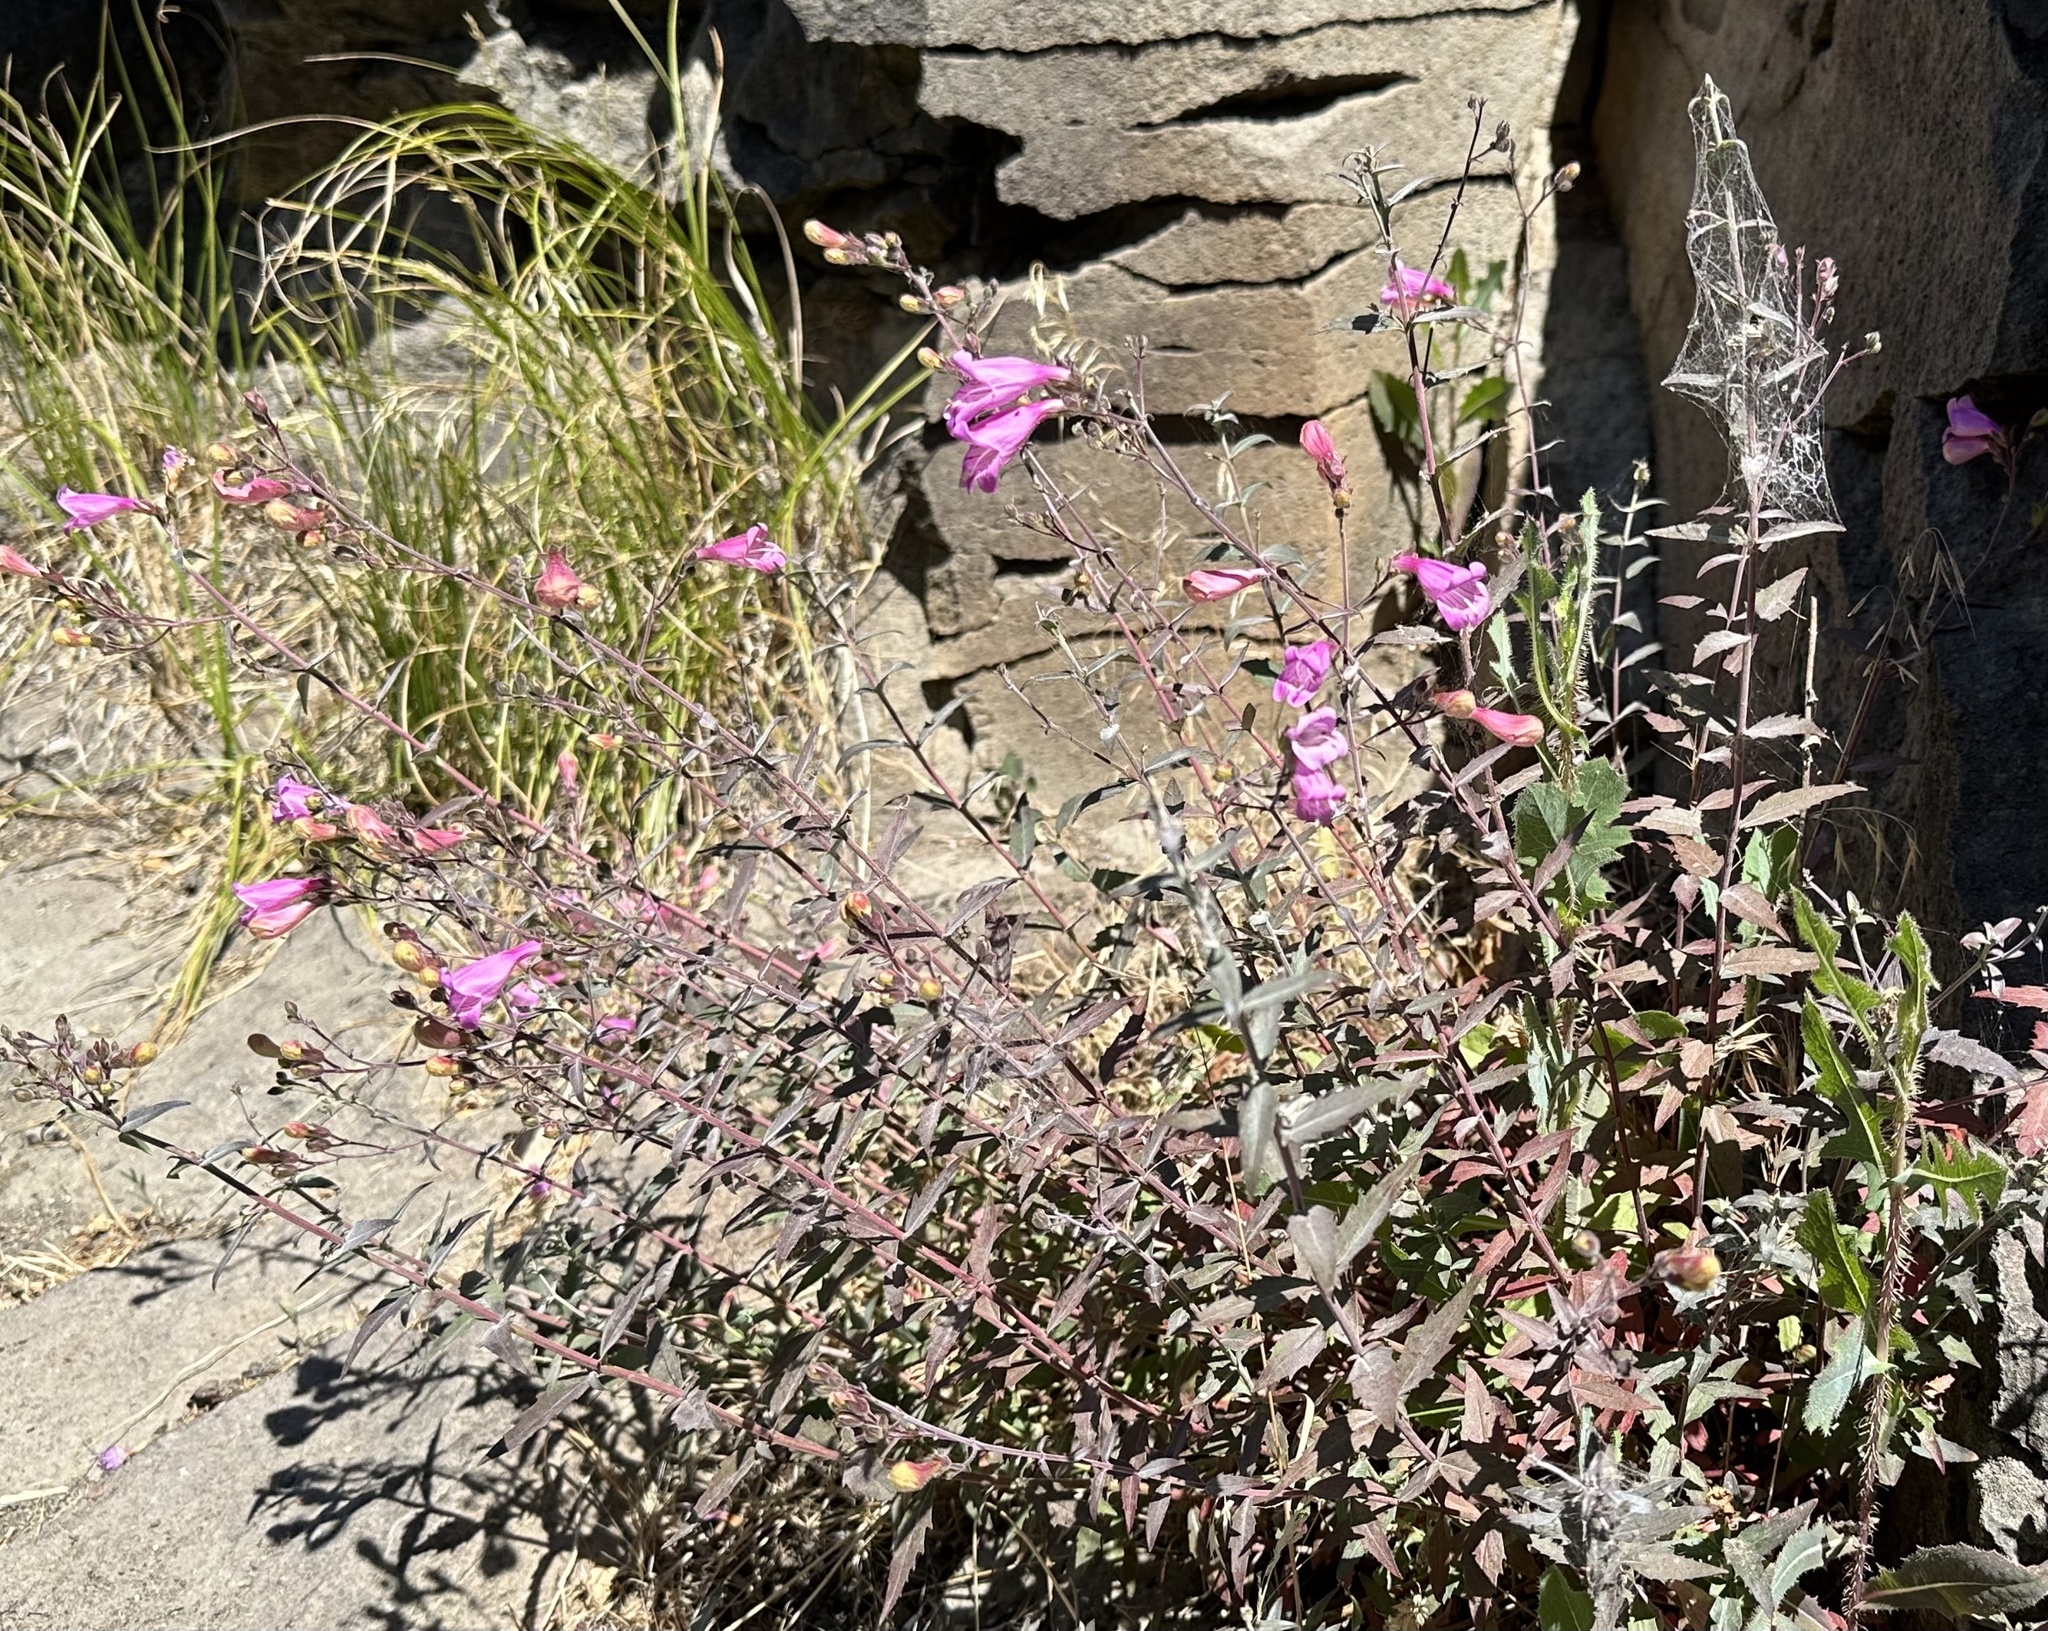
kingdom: Plantae
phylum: Tracheophyta
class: Magnoliopsida
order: Lamiales
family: Plantaginaceae
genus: Penstemon
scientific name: Penstemon richardsonii
